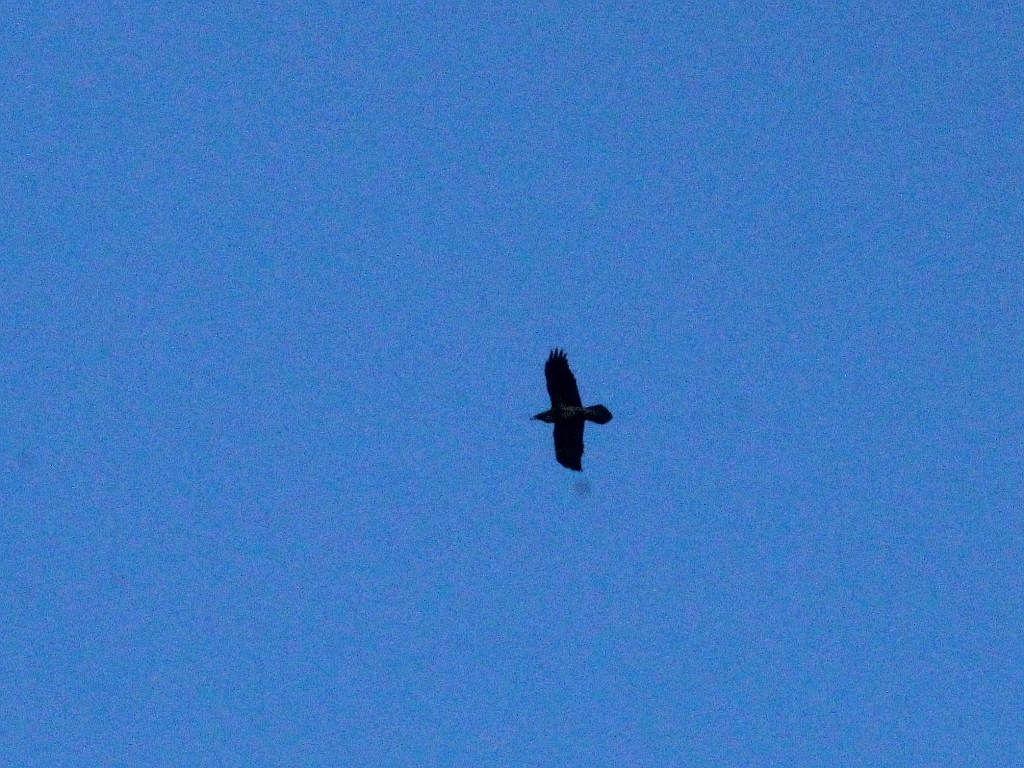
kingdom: Animalia
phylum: Chordata
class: Aves
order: Passeriformes
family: Corvidae
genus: Corvus
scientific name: Corvus corax
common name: Common raven
